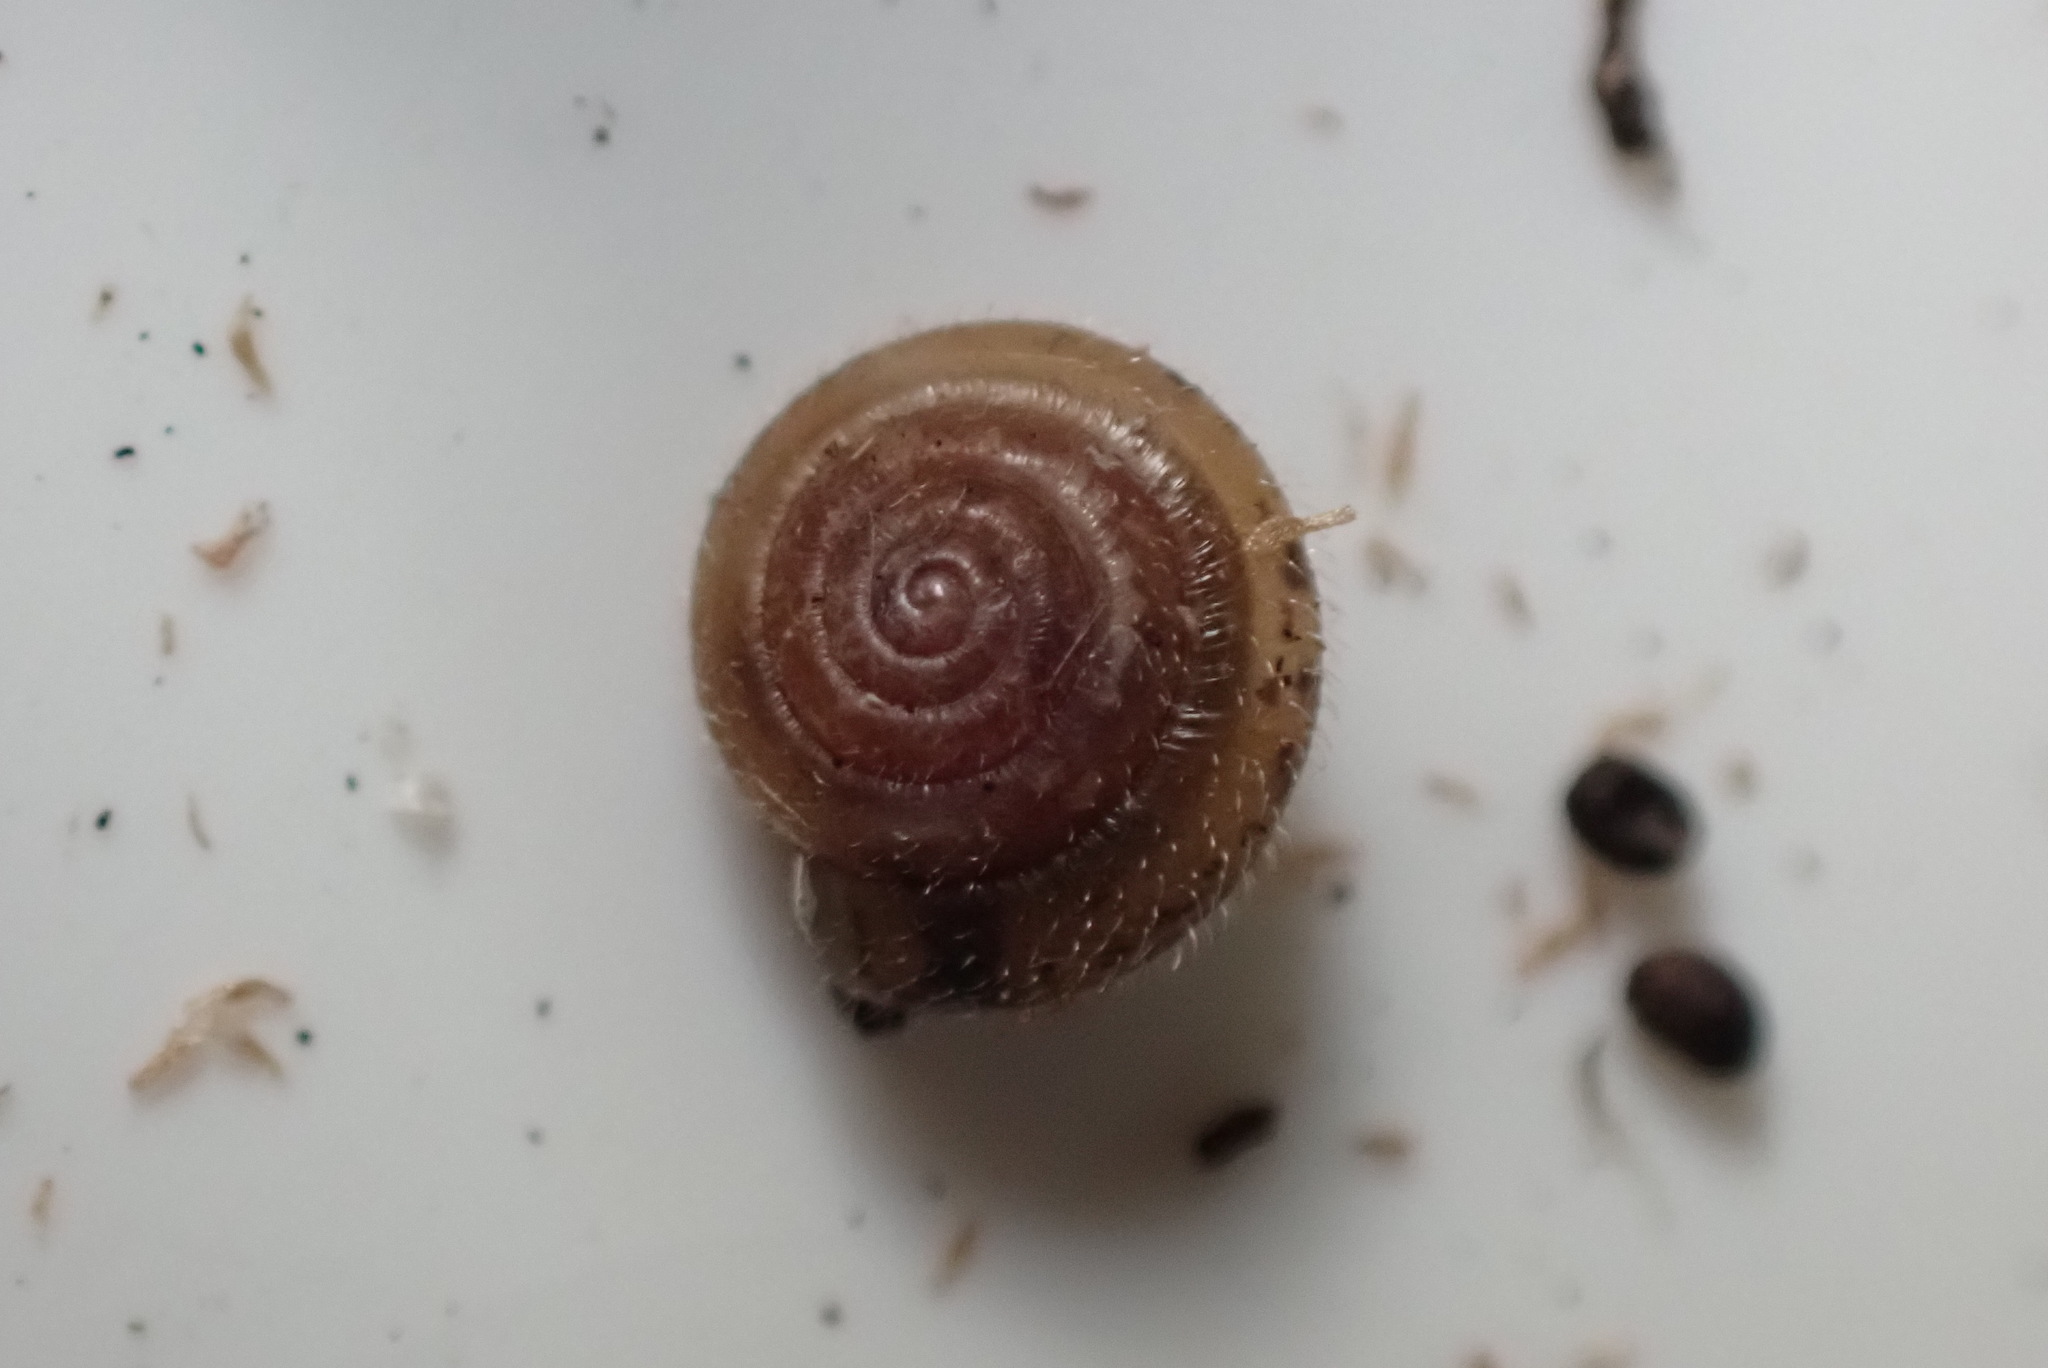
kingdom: Animalia
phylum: Mollusca
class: Gastropoda
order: Stylommatophora
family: Hygromiidae
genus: Trochulus
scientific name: Trochulus hispidus
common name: Hairy snail
